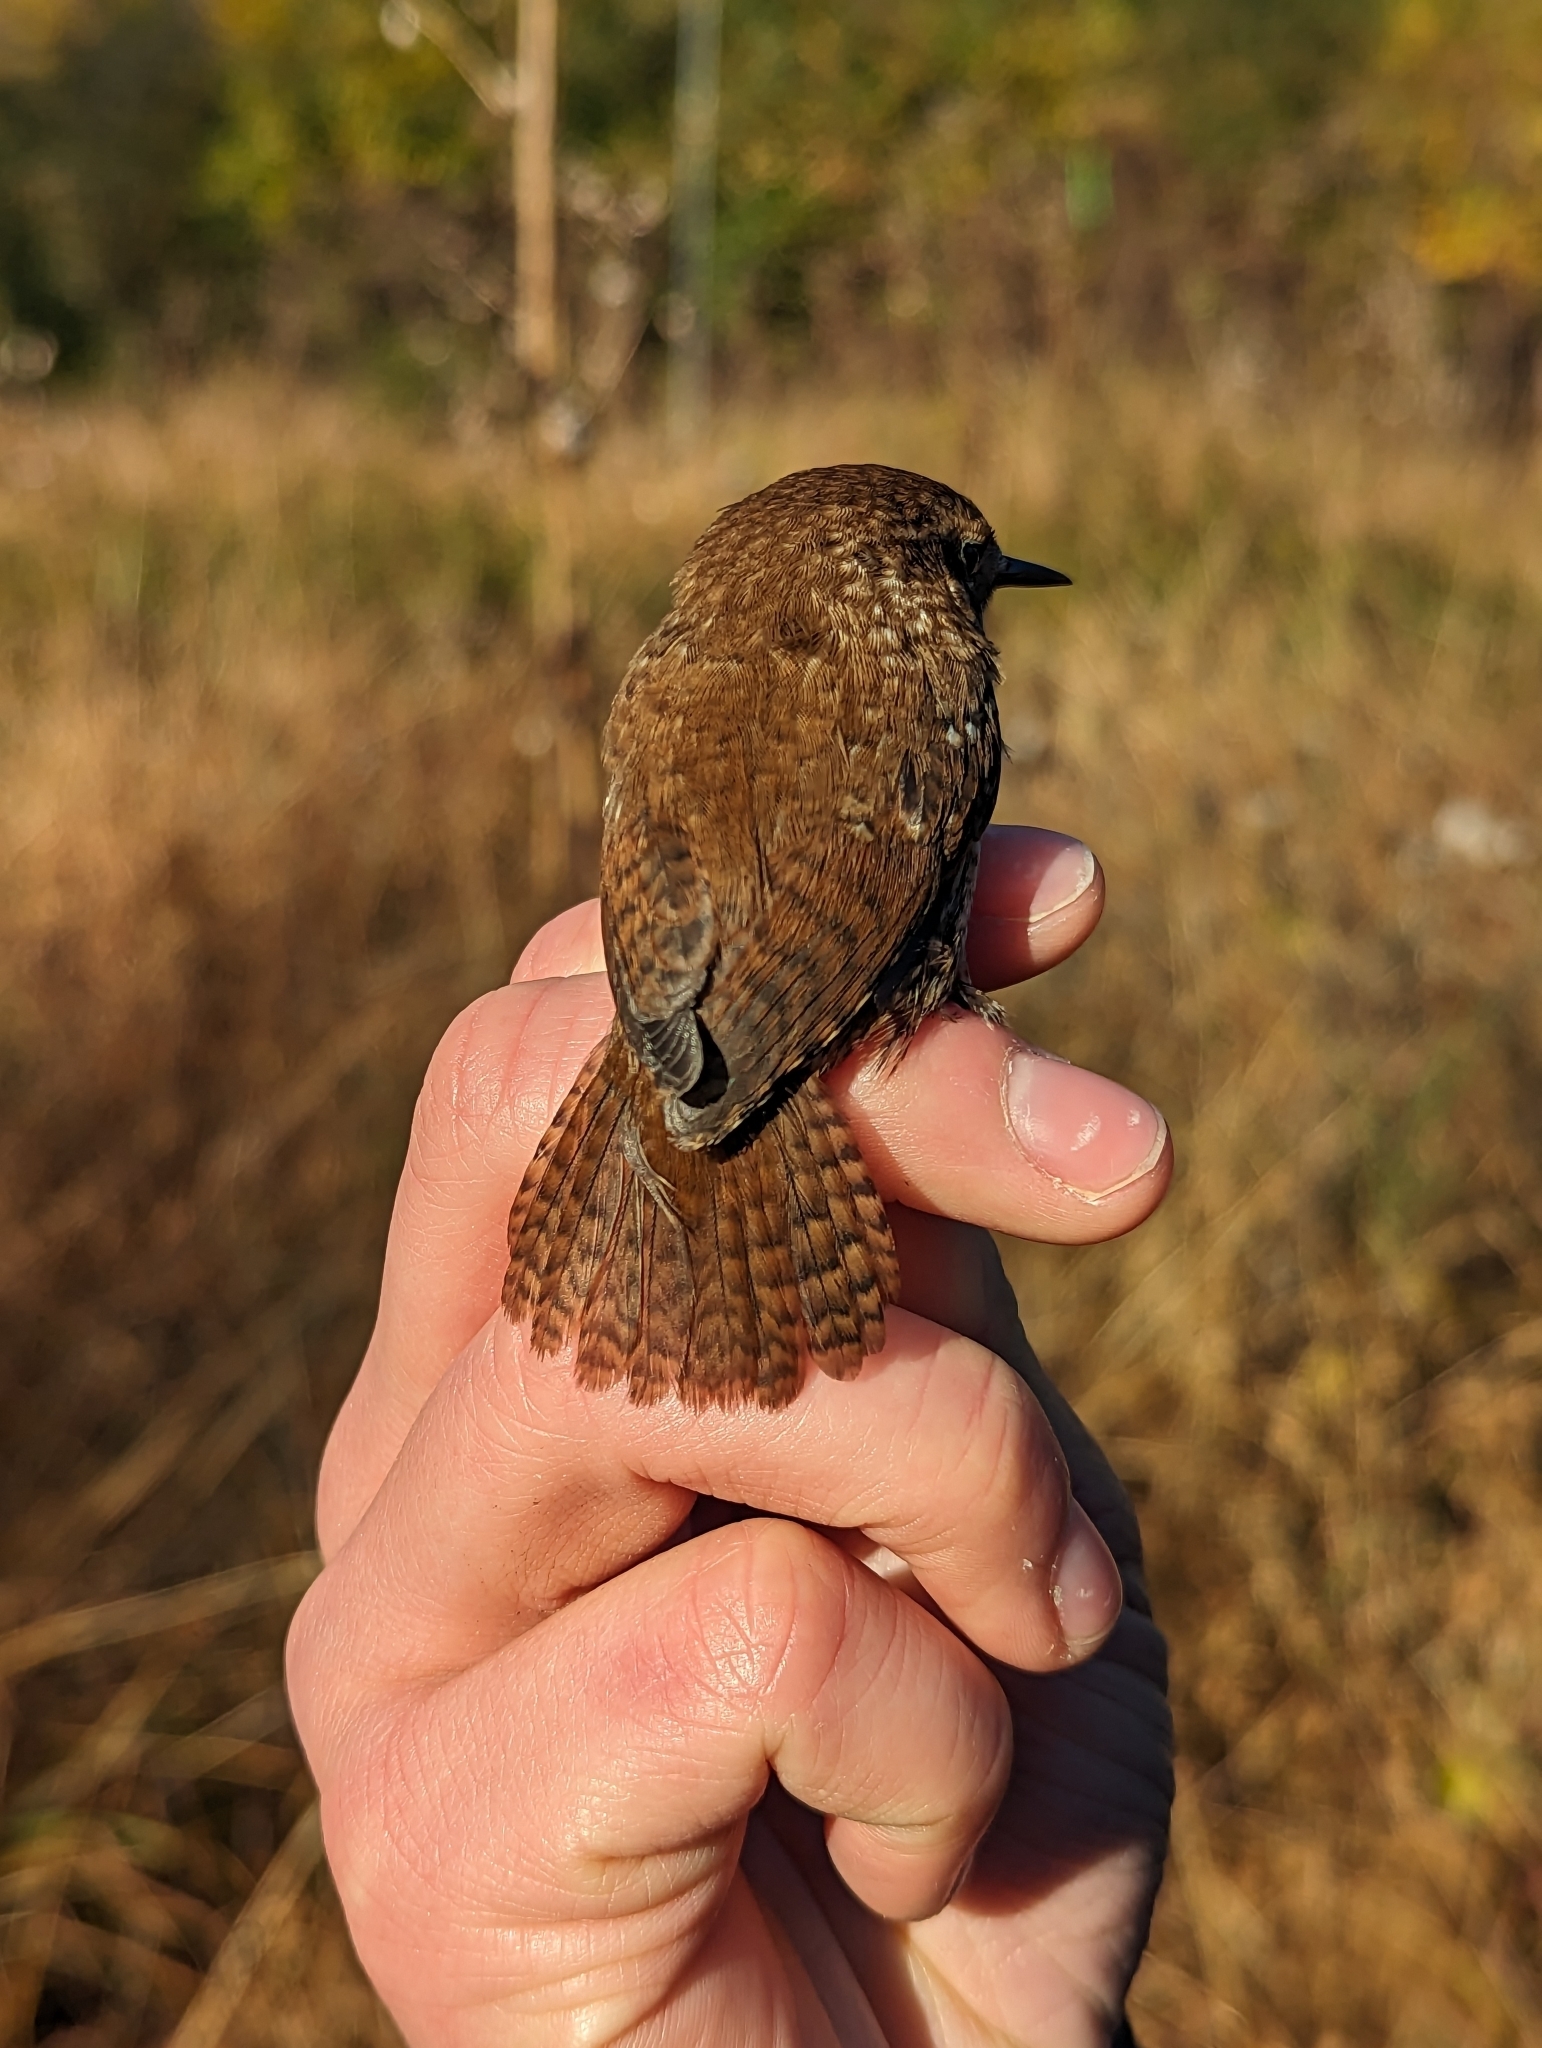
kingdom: Animalia
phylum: Chordata
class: Aves
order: Passeriformes
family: Troglodytidae
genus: Troglodytes
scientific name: Troglodytes hiemalis
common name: Winter wren
